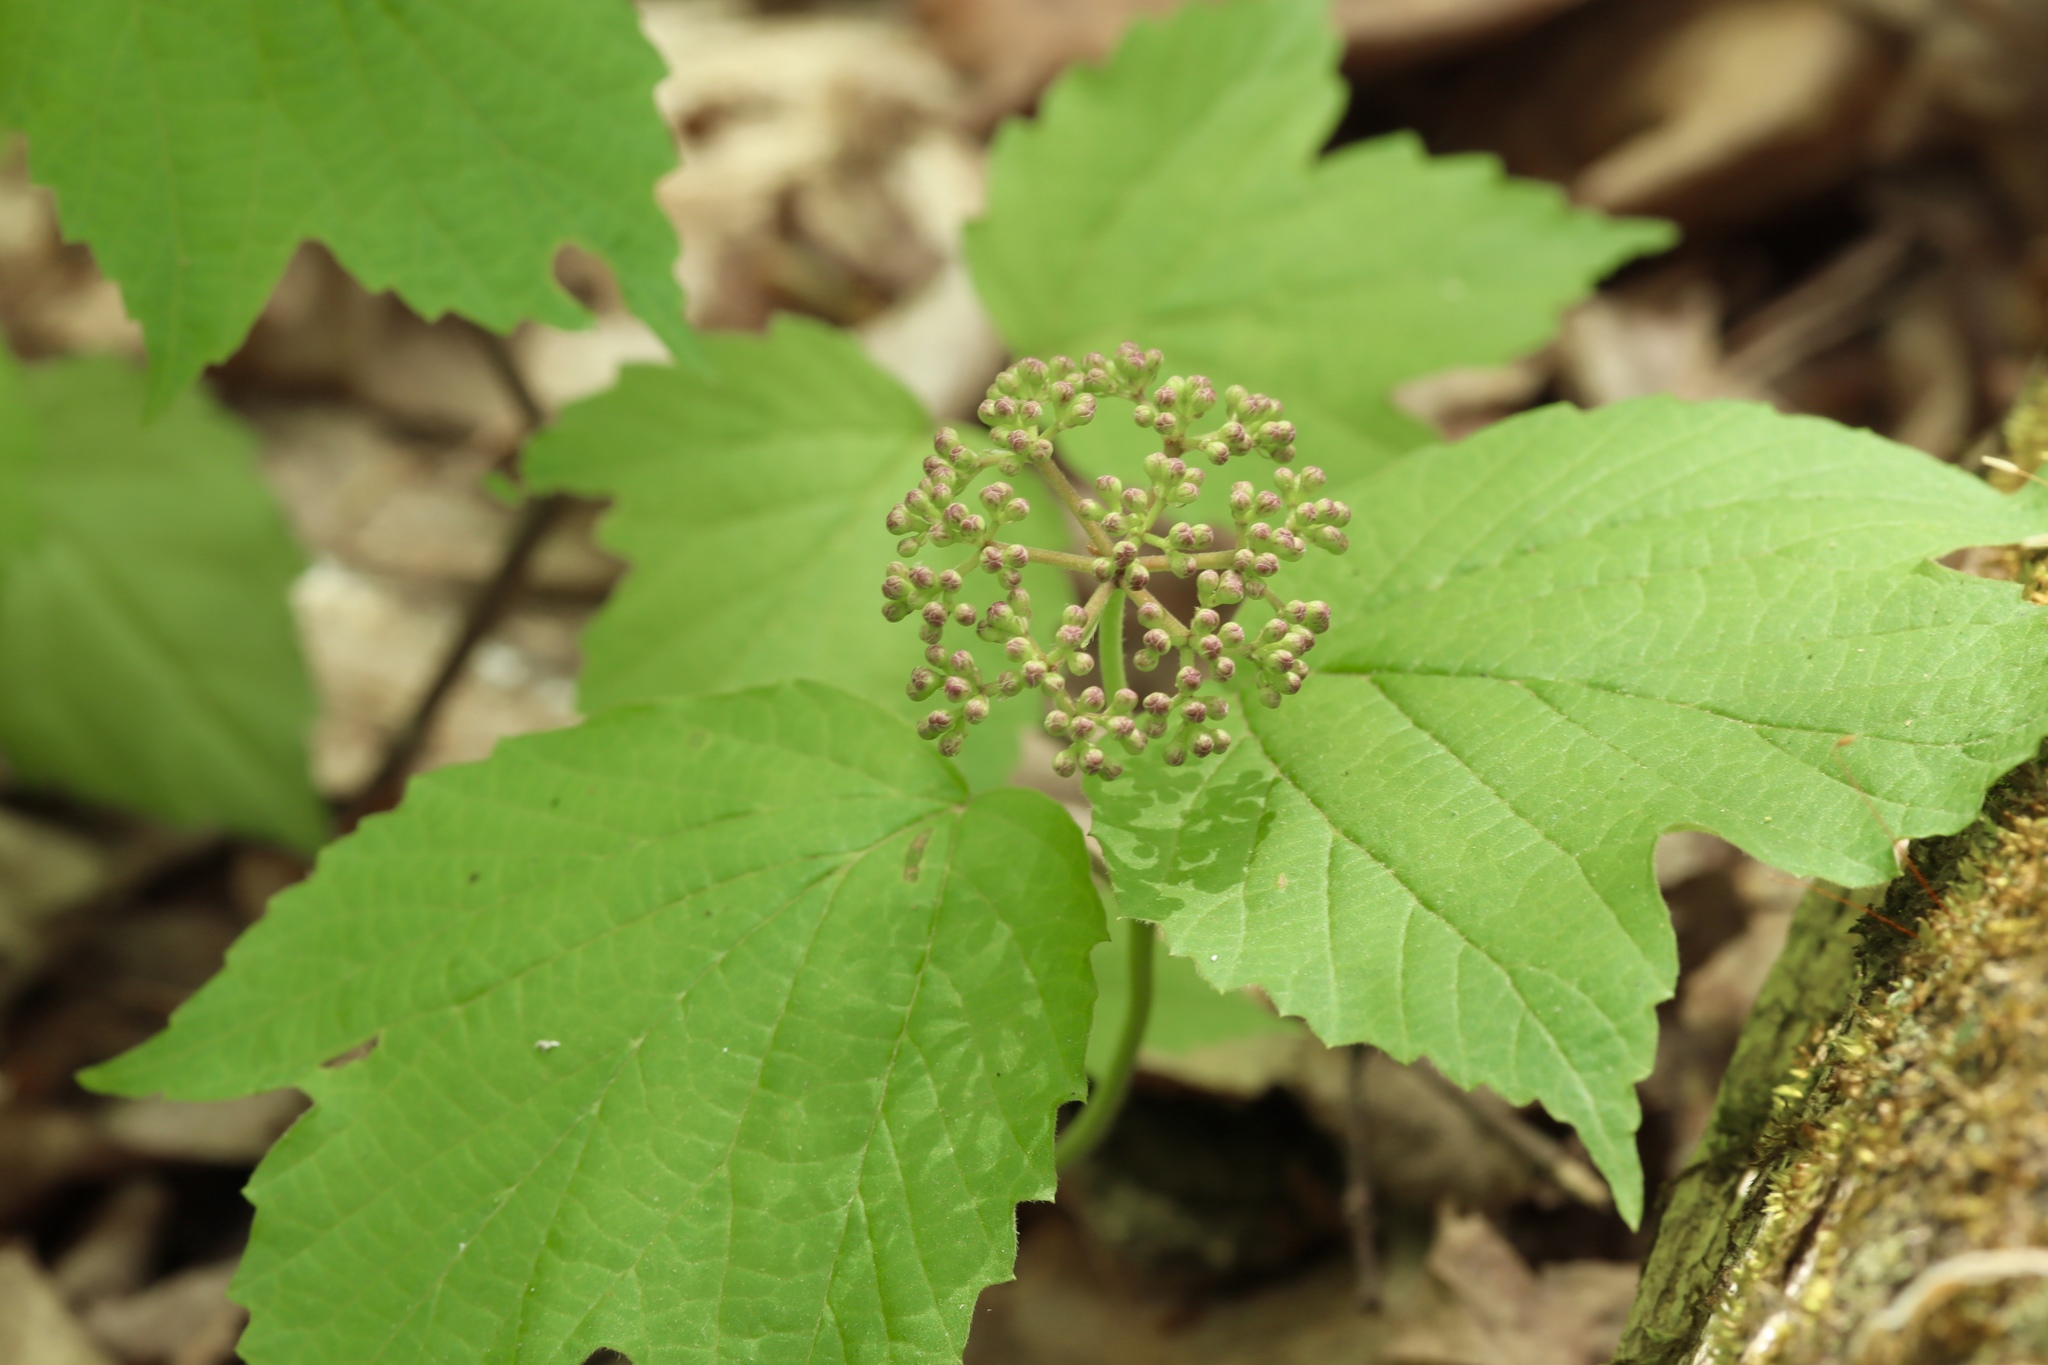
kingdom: Plantae
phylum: Tracheophyta
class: Magnoliopsida
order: Dipsacales
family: Viburnaceae
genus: Viburnum
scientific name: Viburnum acerifolium
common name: Dockmackie
